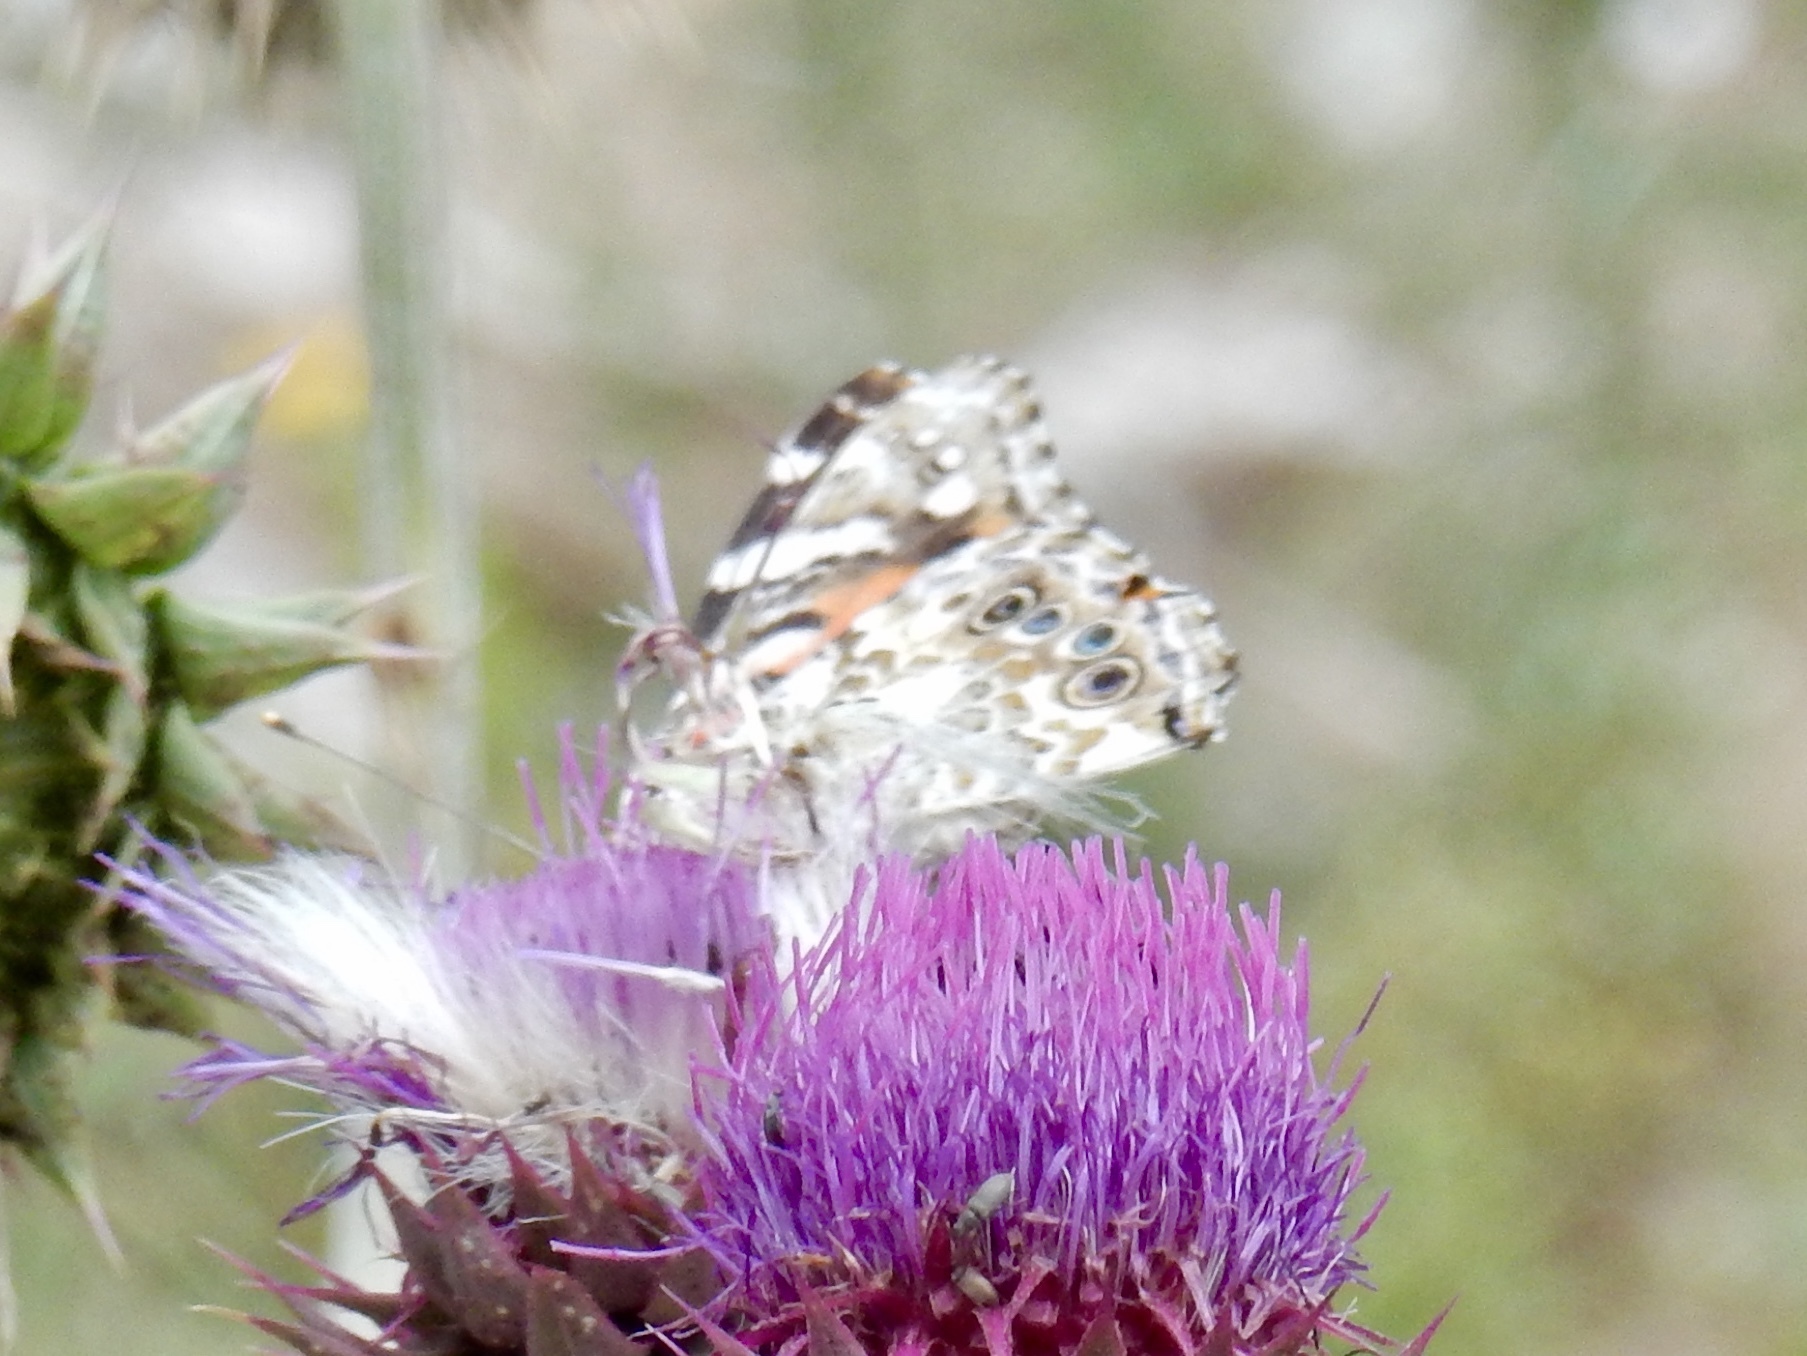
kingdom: Animalia
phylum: Arthropoda
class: Insecta
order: Lepidoptera
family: Nymphalidae
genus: Vanessa
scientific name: Vanessa cardui
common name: Painted lady
